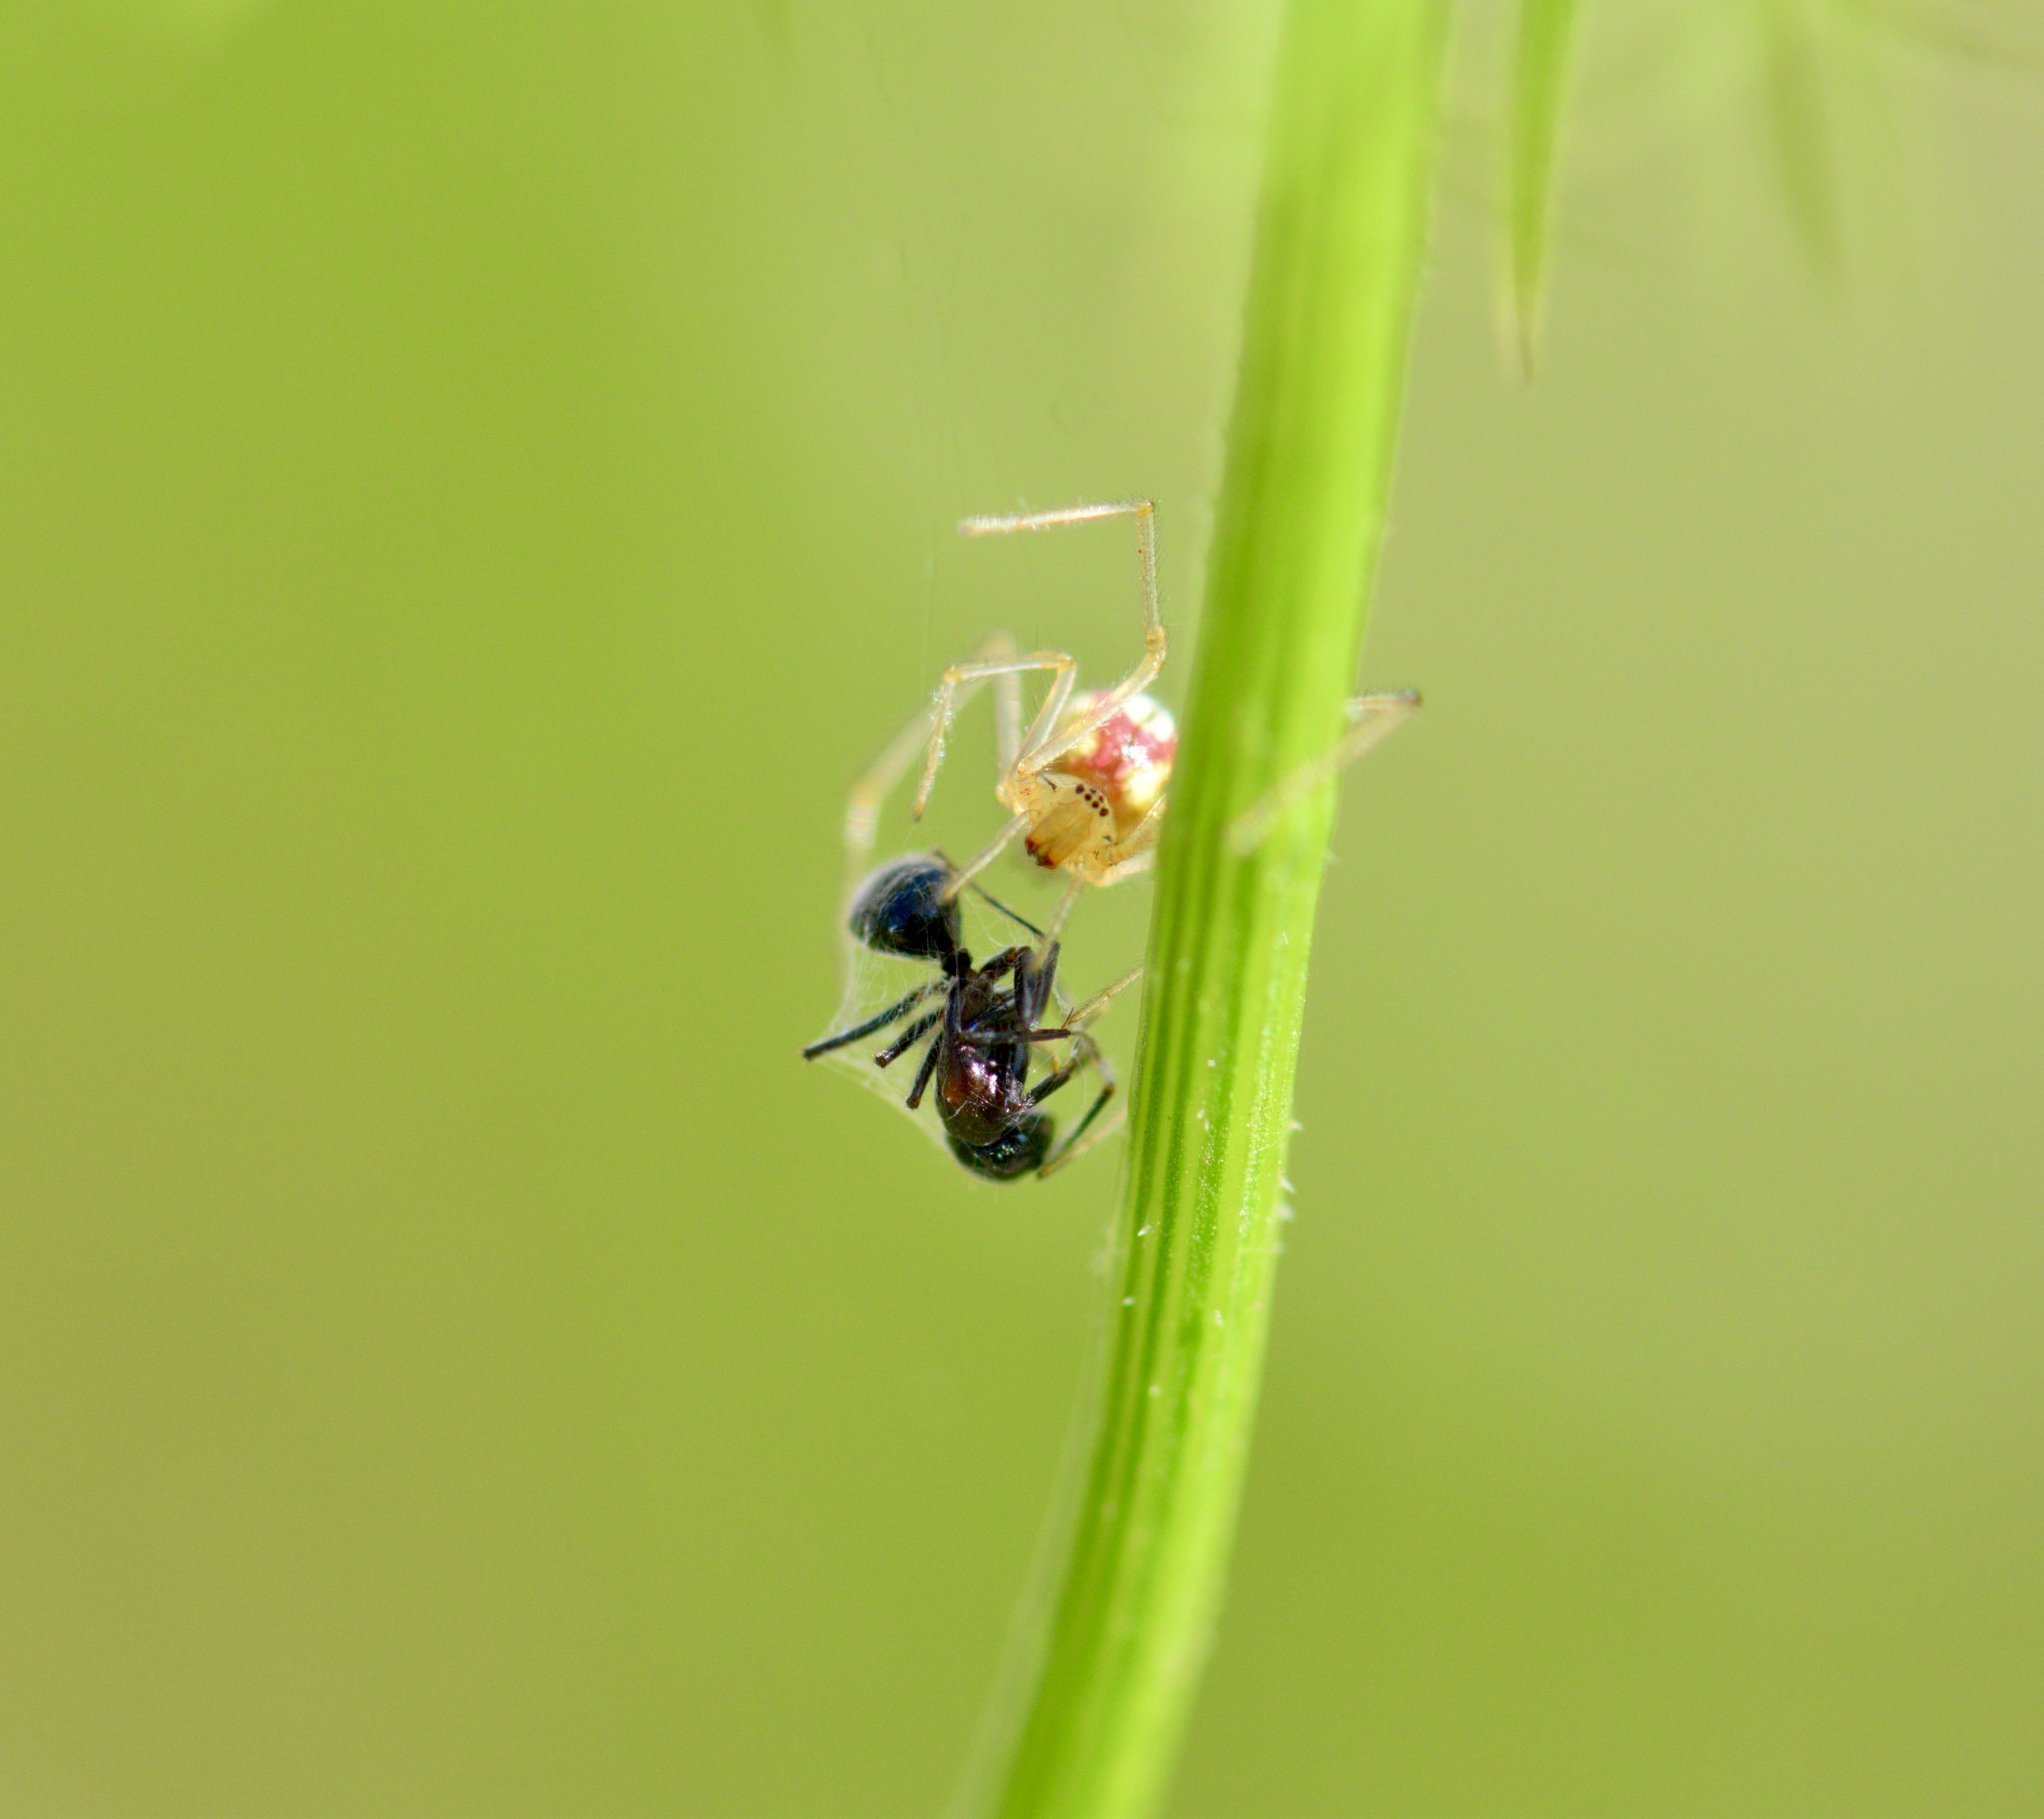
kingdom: Animalia
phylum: Arthropoda
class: Arachnida
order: Araneae
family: Theridiidae
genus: Enoplognatha
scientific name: Enoplognatha ovata
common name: Common candy-striped spider
